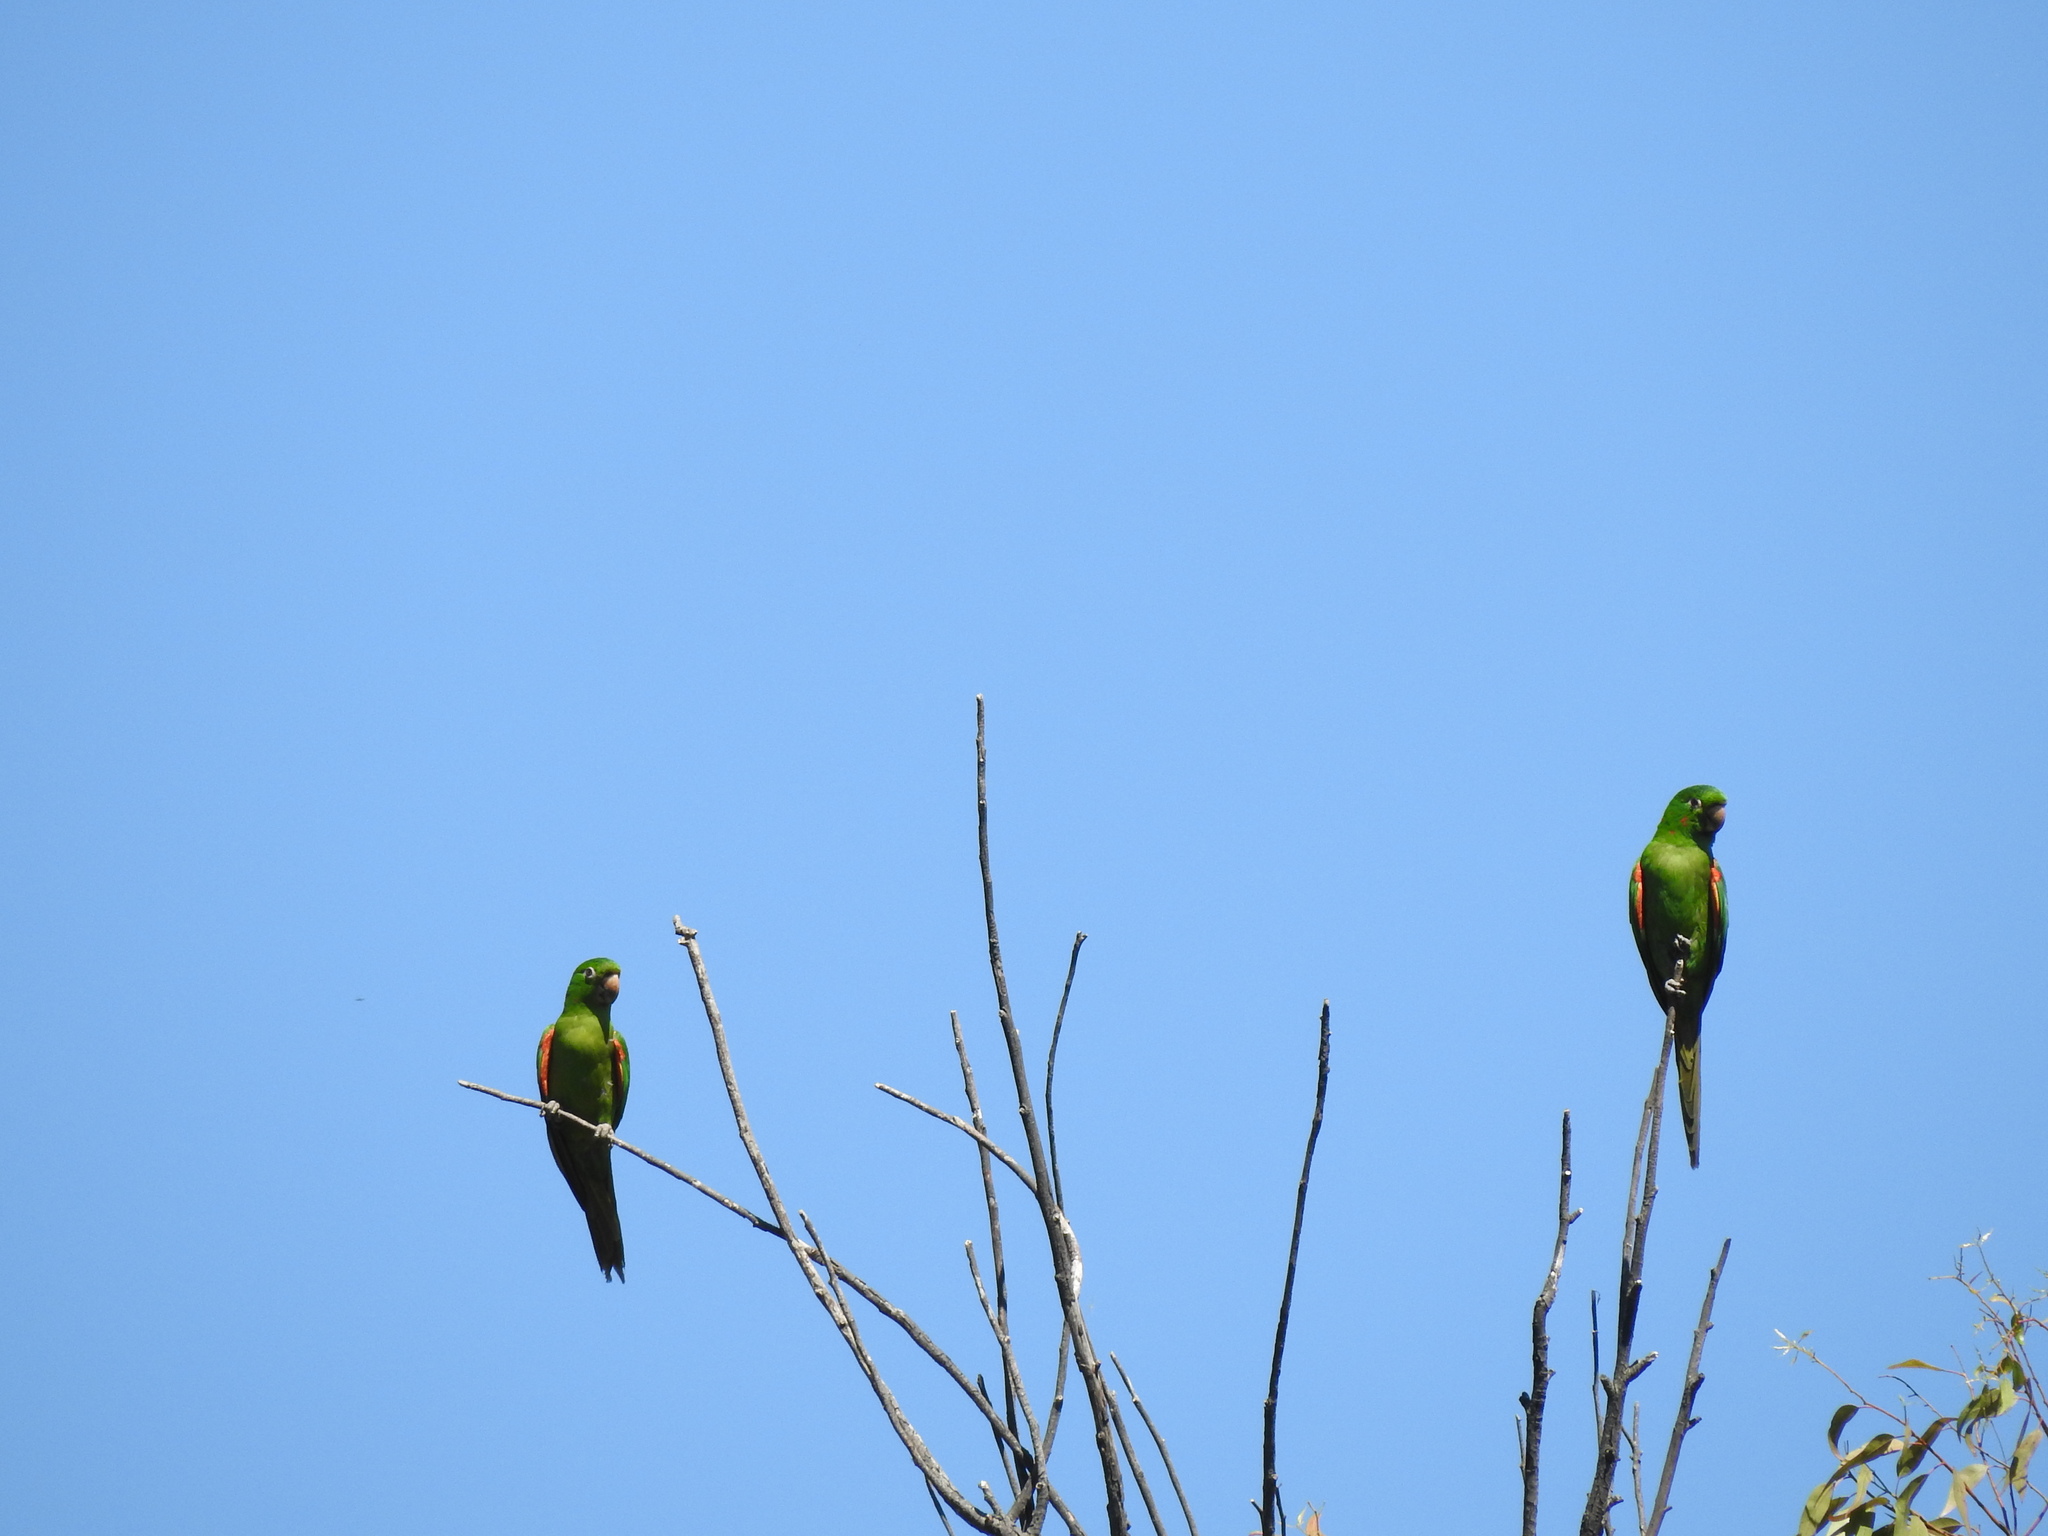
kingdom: Animalia
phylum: Chordata
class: Aves
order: Psittaciformes
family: Psittacidae
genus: Aratinga
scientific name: Aratinga leucophthalma
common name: White-eyed parakeet
